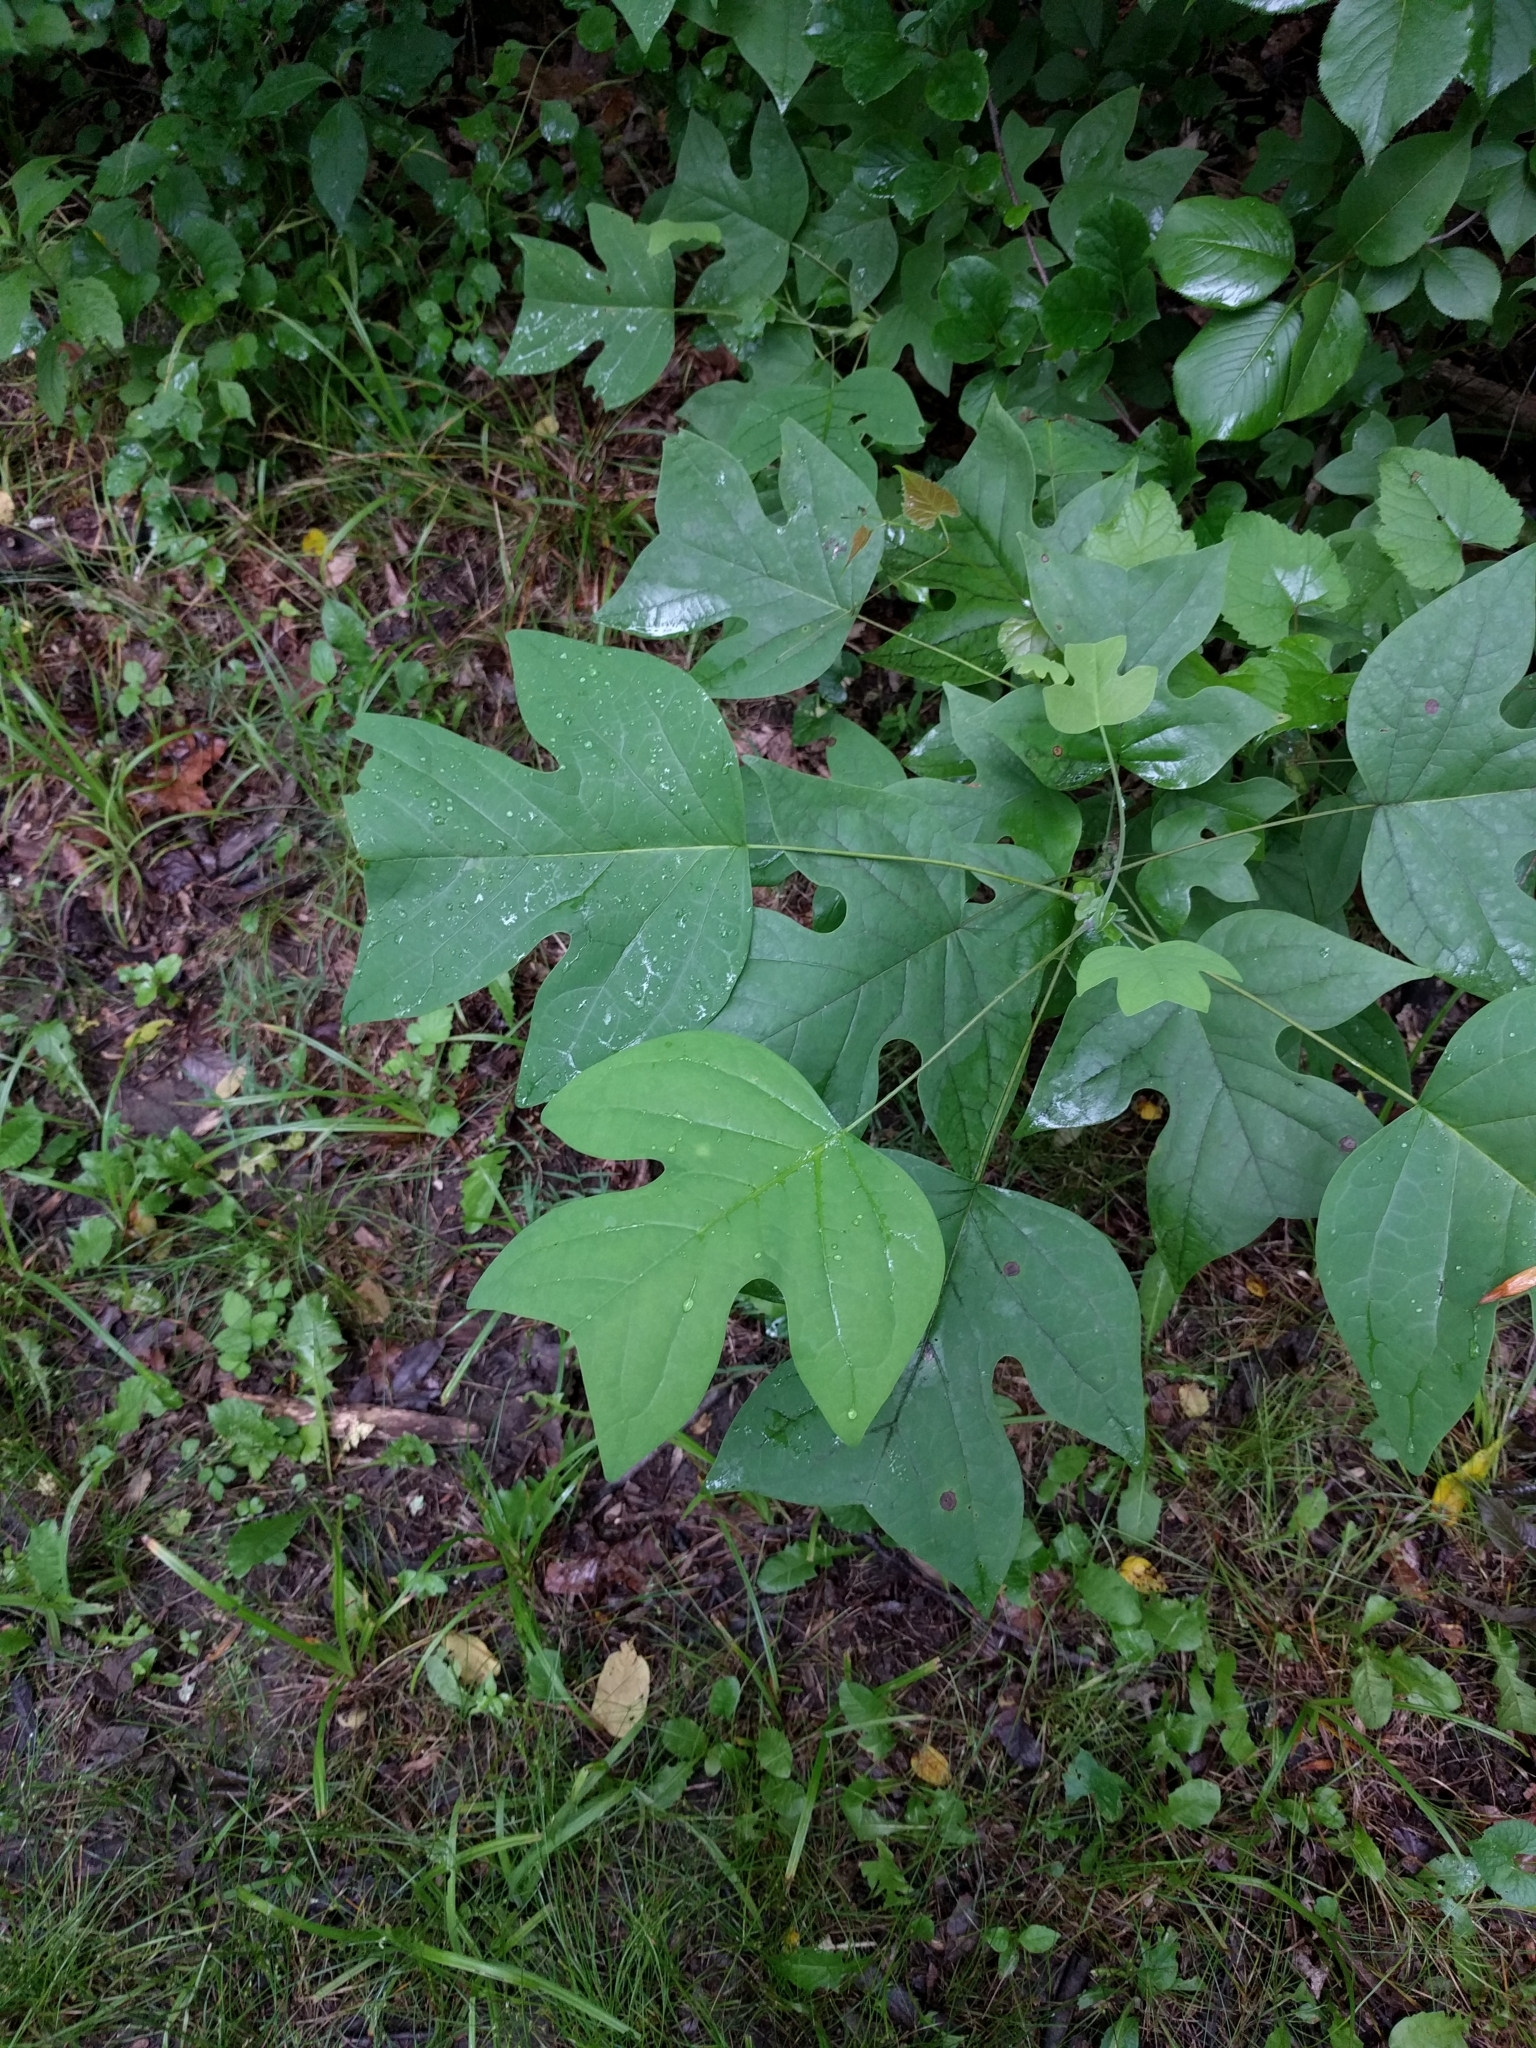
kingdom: Plantae
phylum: Tracheophyta
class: Magnoliopsida
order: Magnoliales
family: Magnoliaceae
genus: Liriodendron
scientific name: Liriodendron tulipifera
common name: Tulip tree
